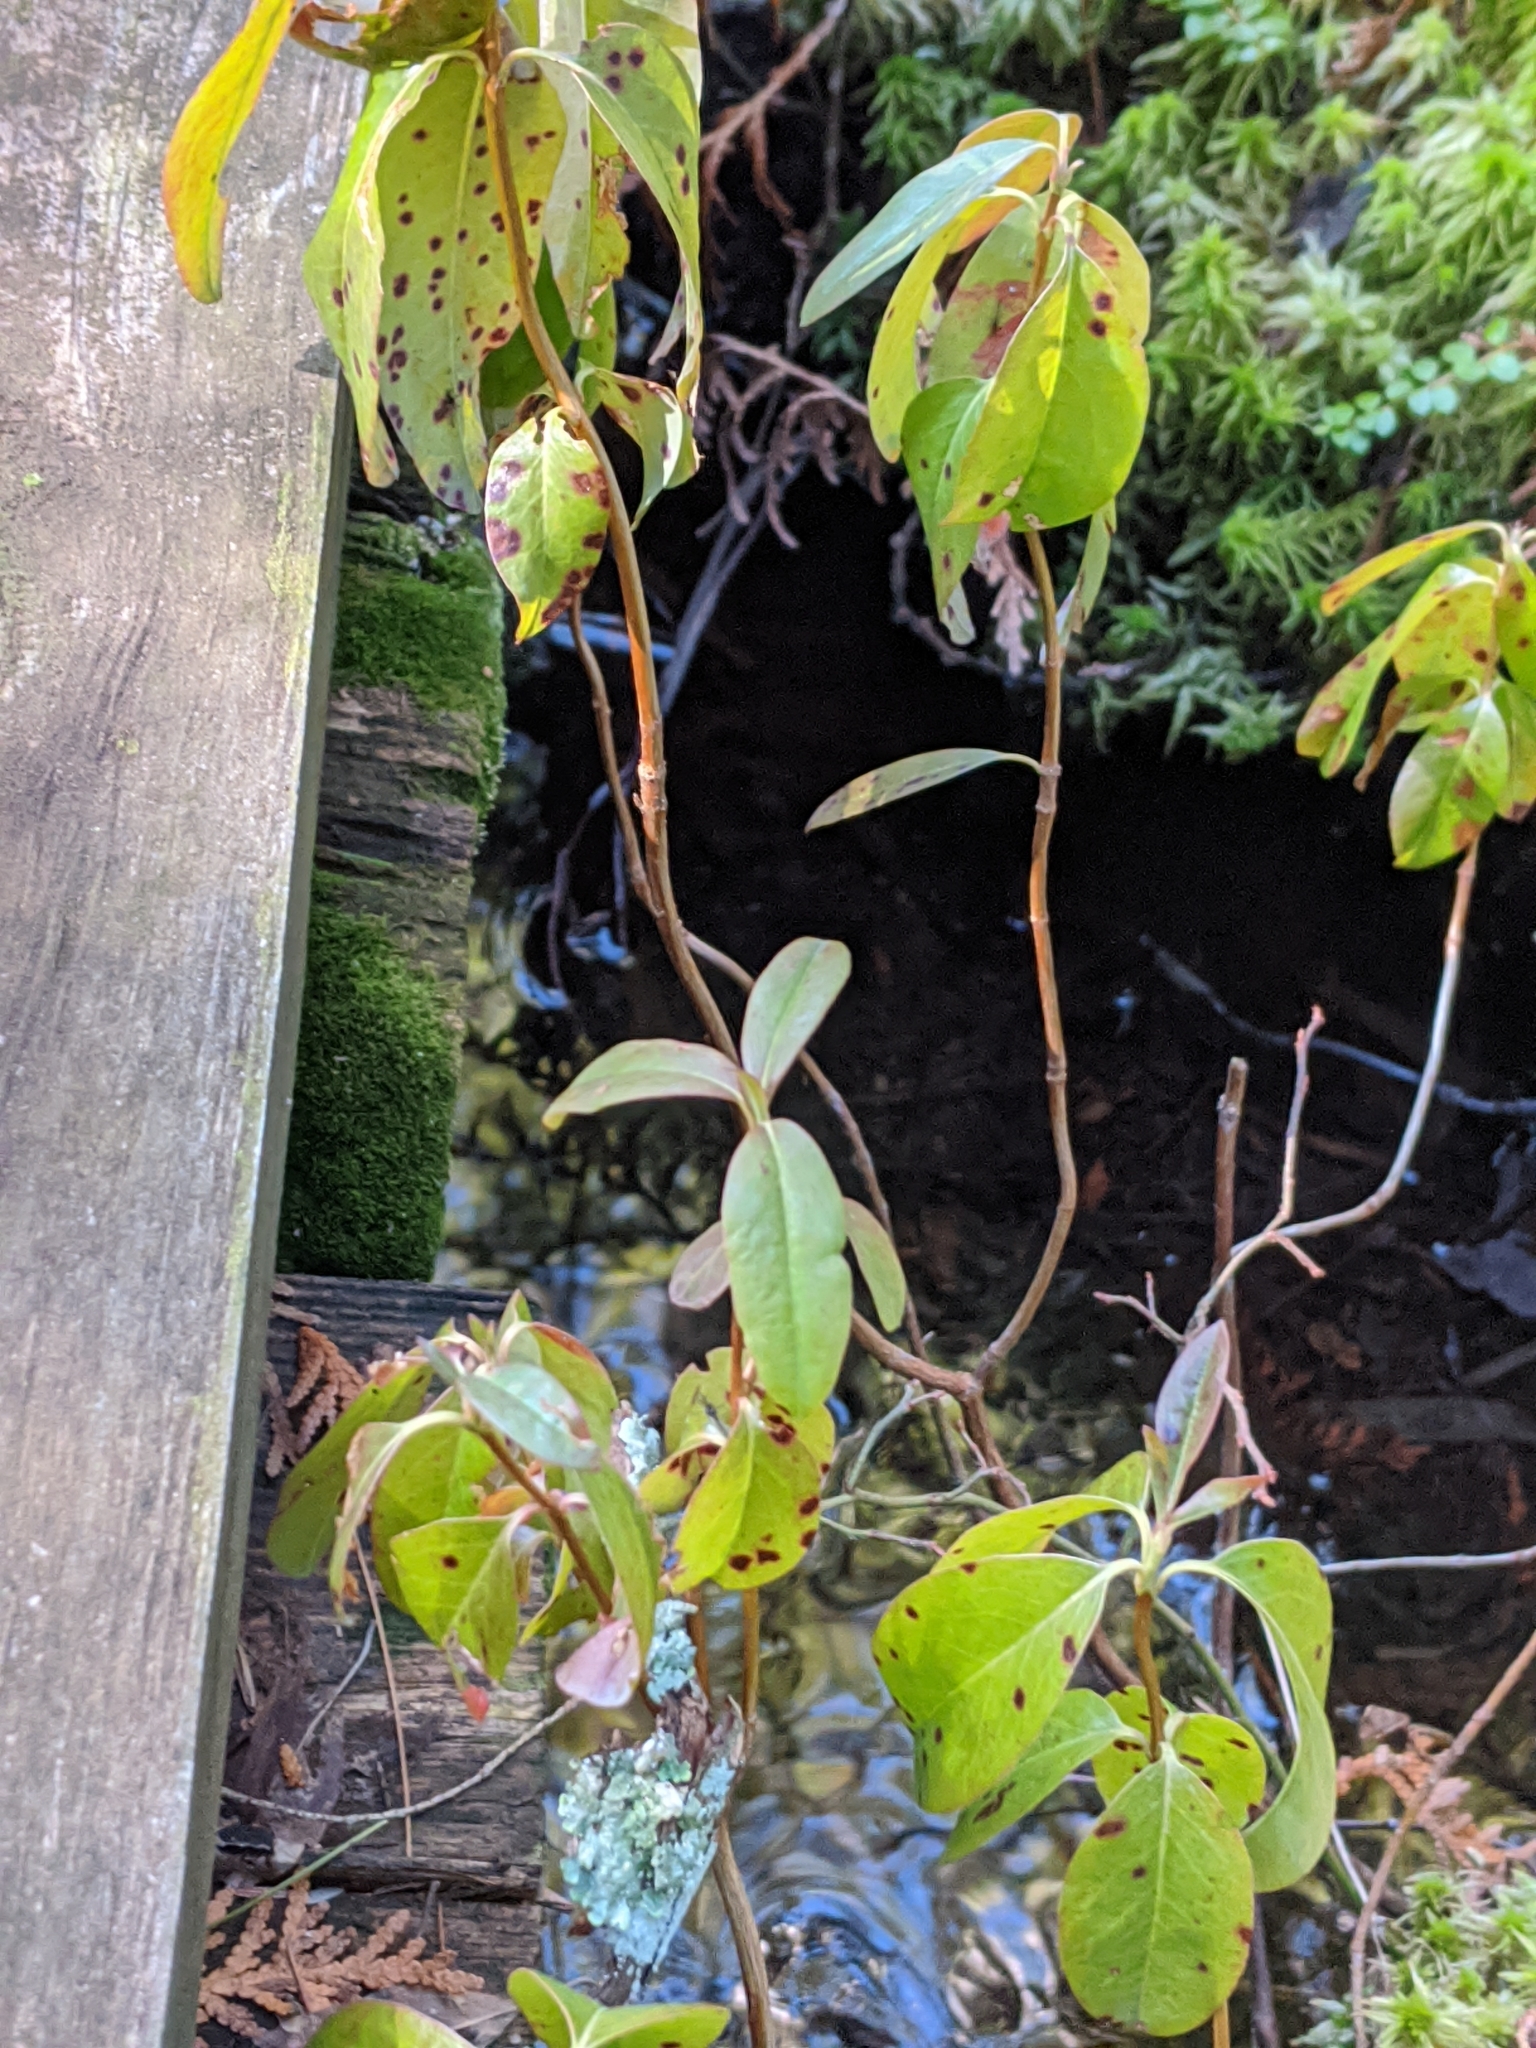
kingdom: Plantae
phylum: Tracheophyta
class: Magnoliopsida
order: Ericales
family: Ericaceae
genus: Kalmia
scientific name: Kalmia angustifolia
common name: Sheep-laurel
